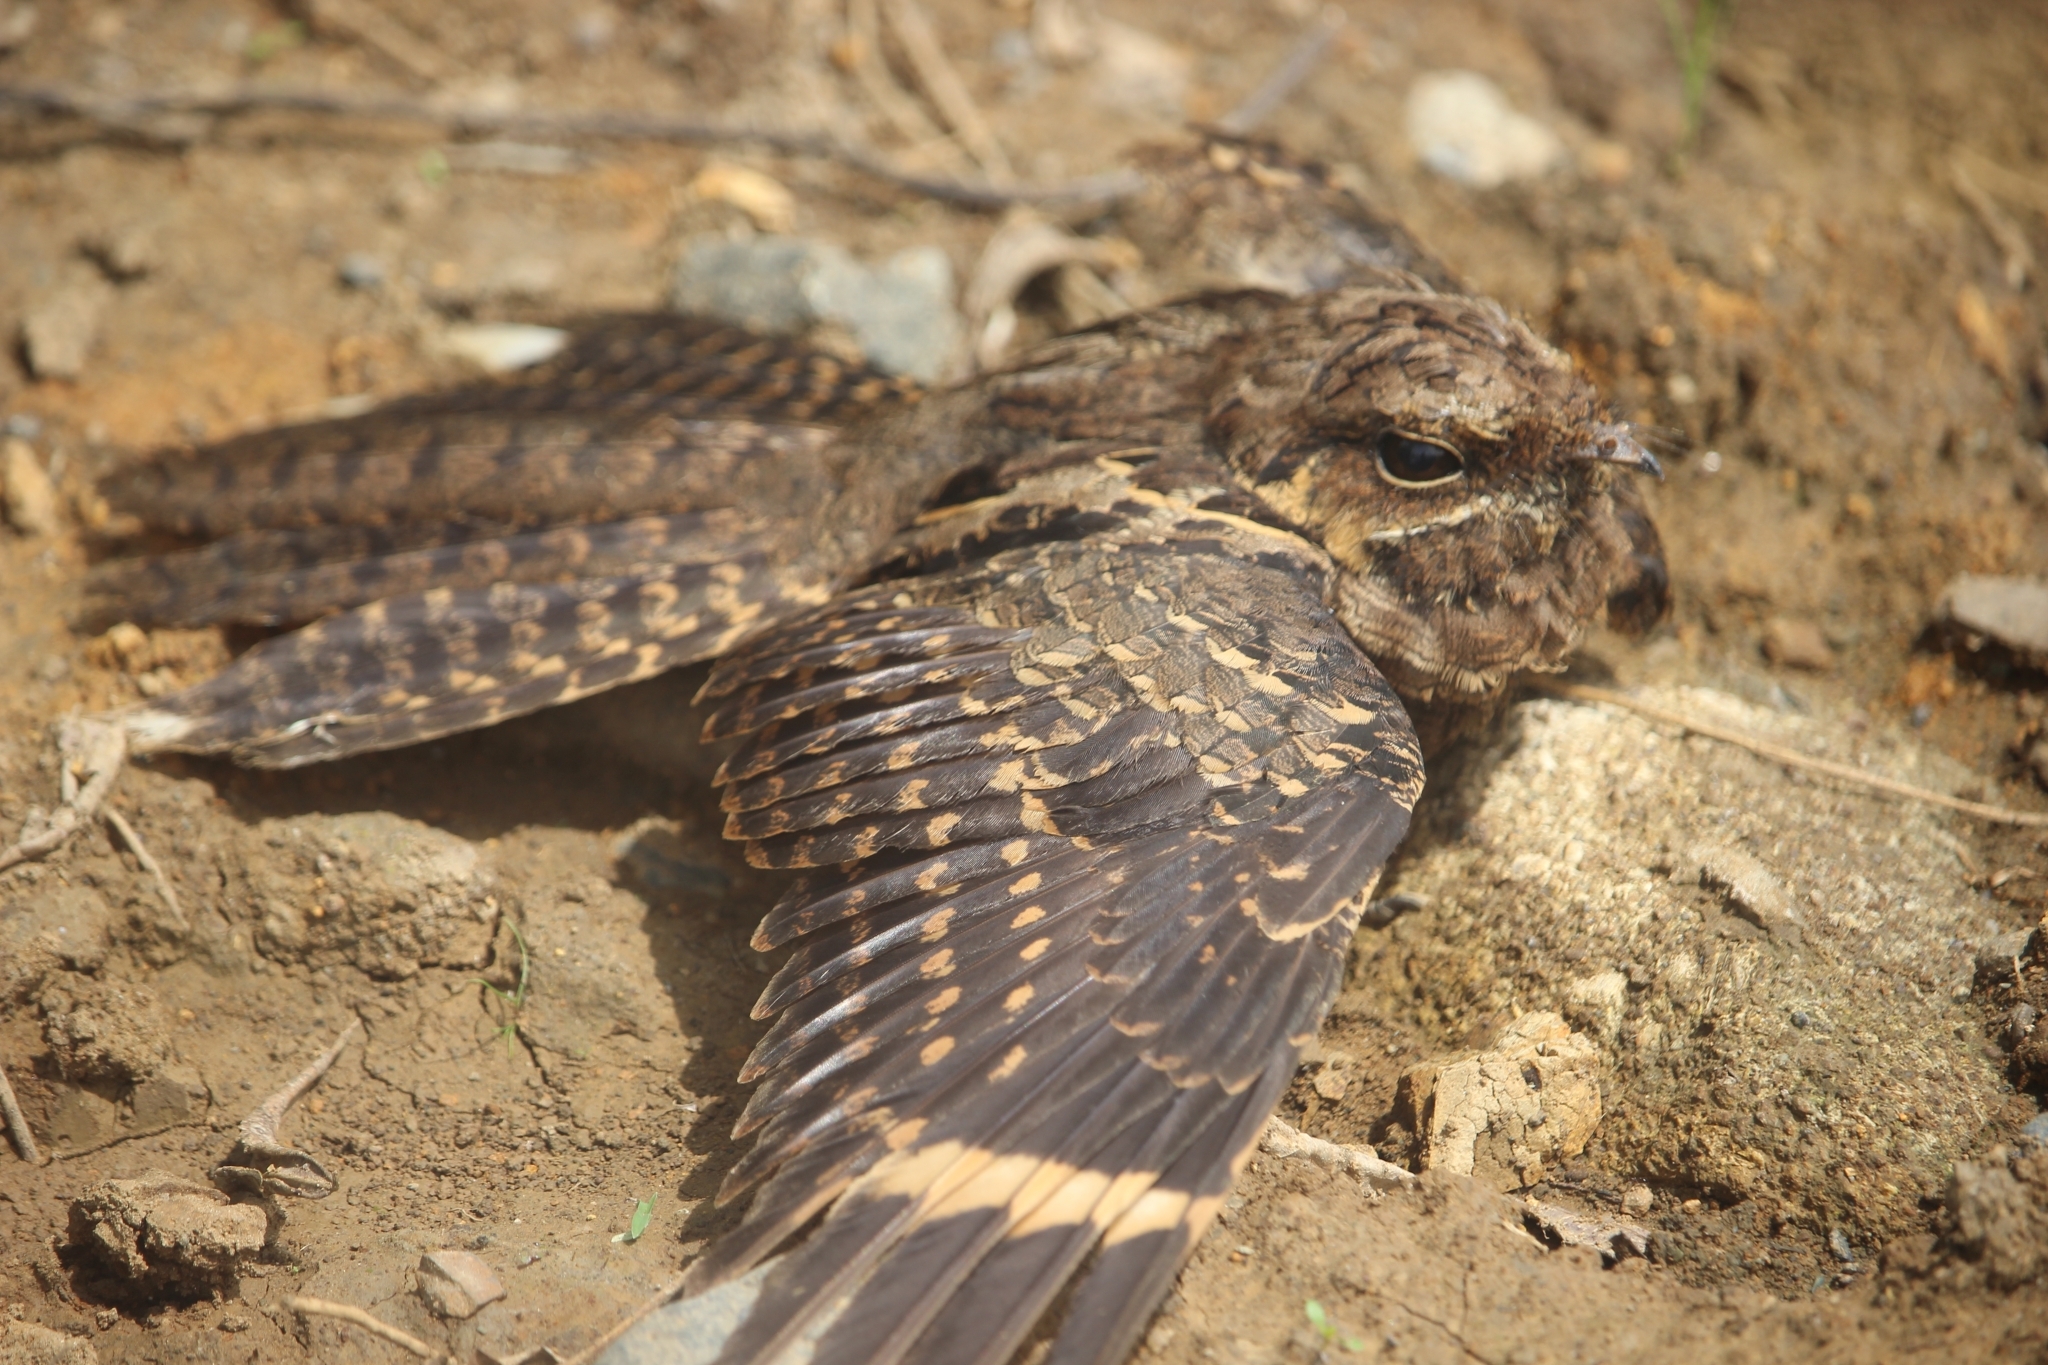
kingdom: Animalia
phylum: Chordata
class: Aves
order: Caprimulgiformes
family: Caprimulgidae
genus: Nyctidromus
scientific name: Nyctidromus albicollis
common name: Pauraque
